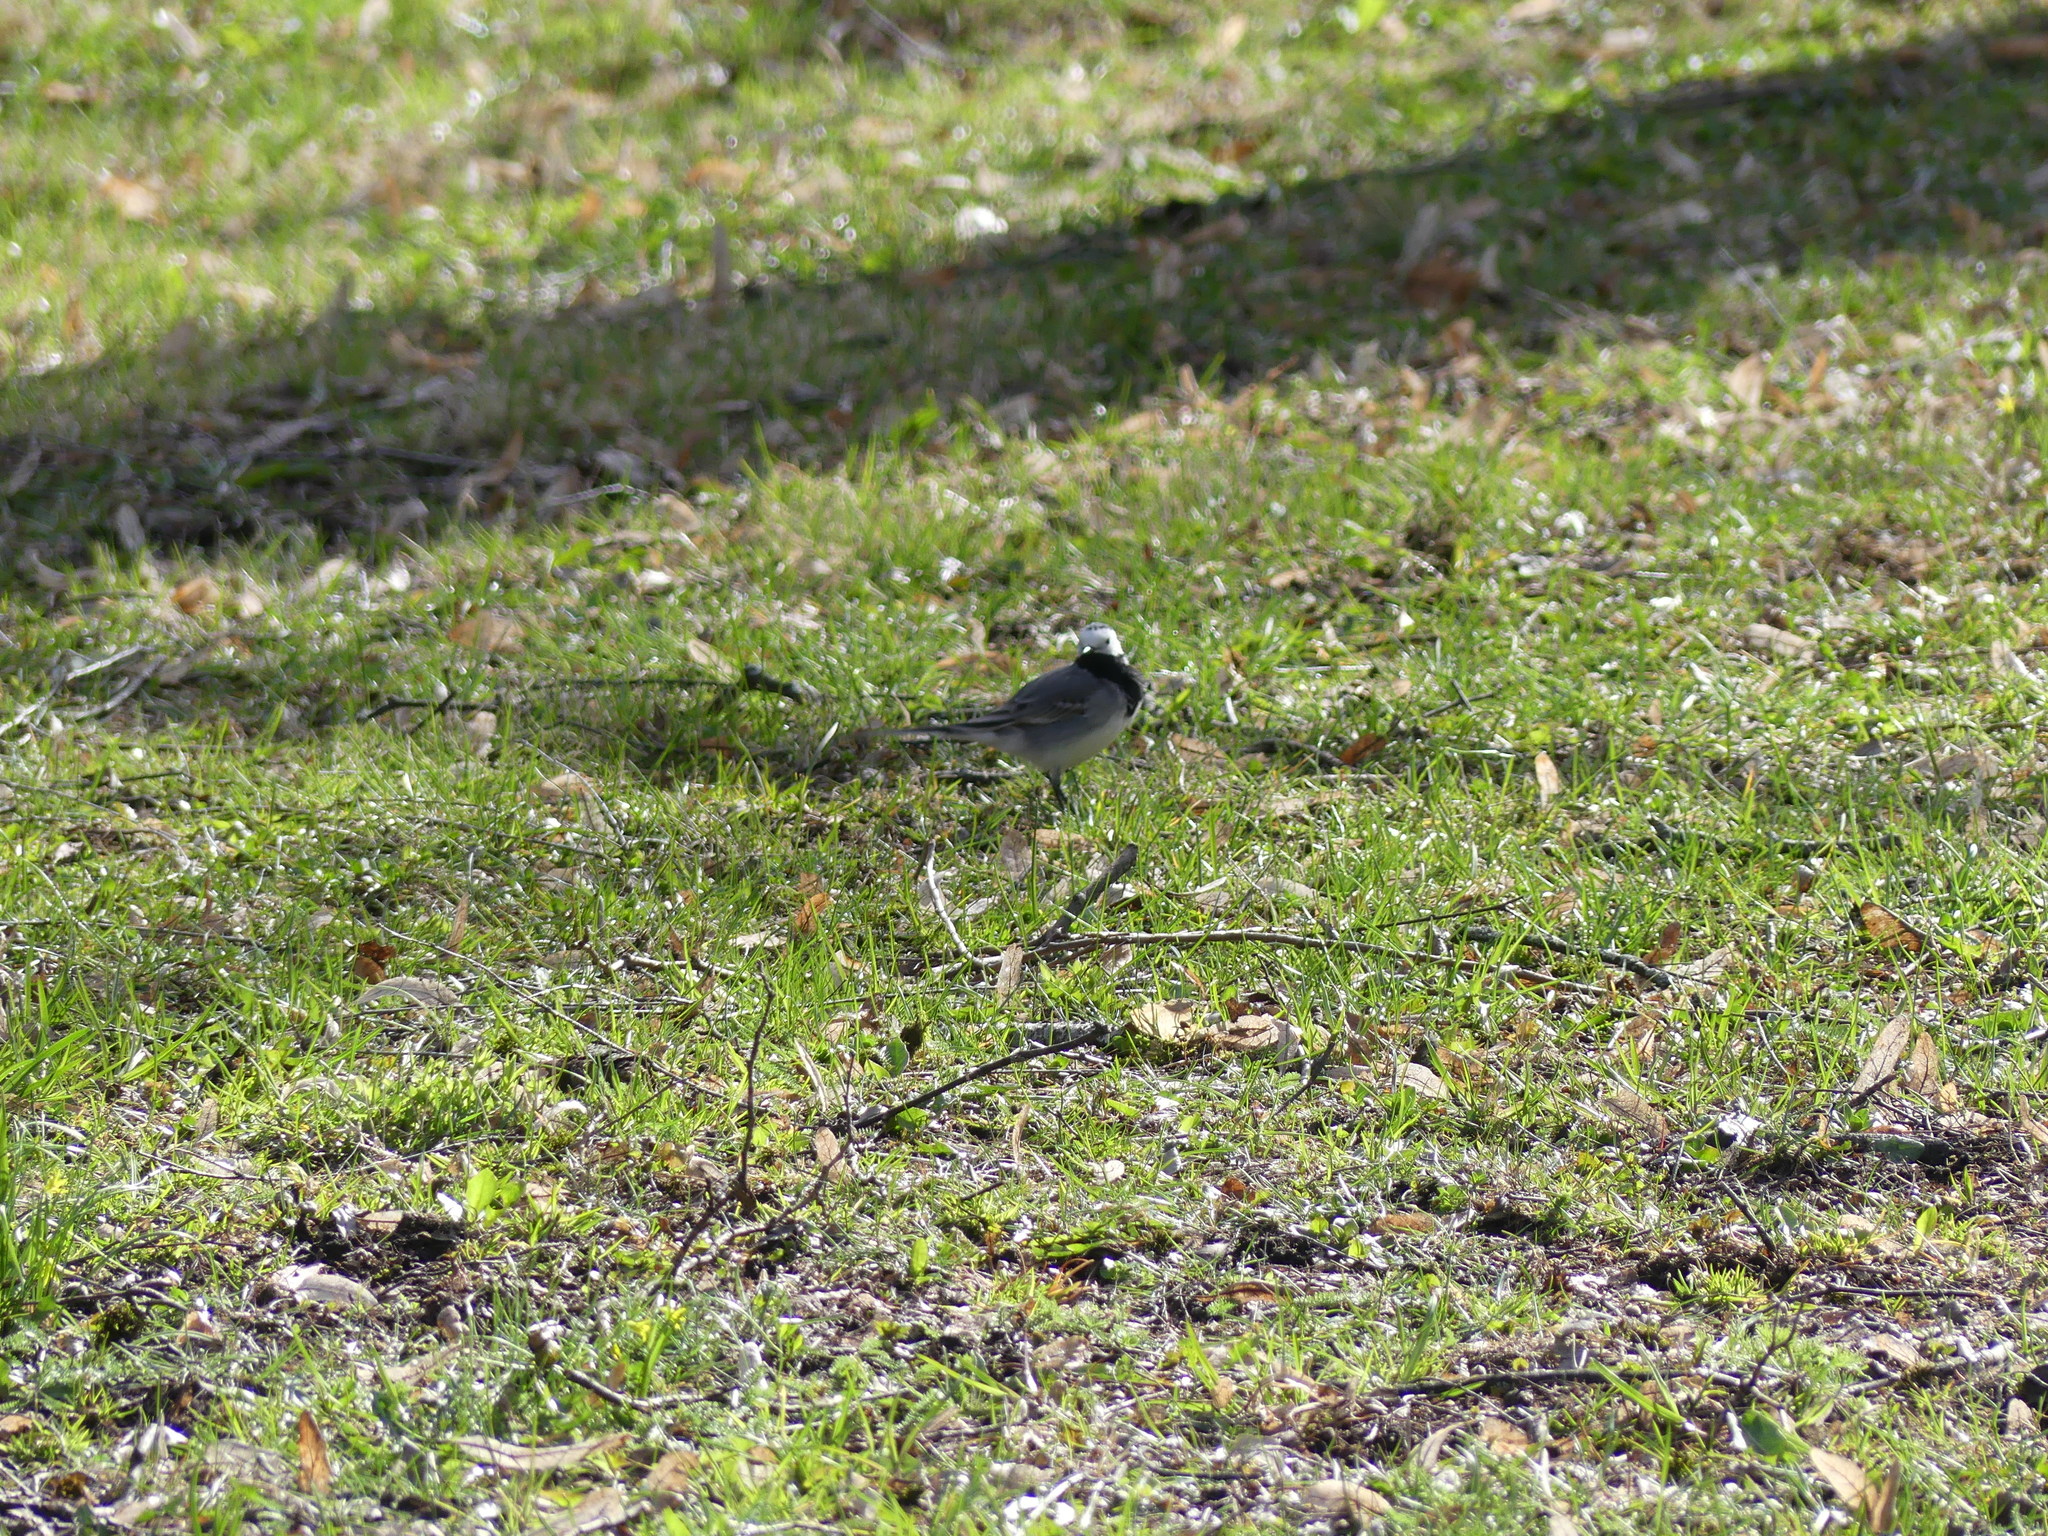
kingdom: Animalia
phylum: Chordata
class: Aves
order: Passeriformes
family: Motacillidae
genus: Motacilla
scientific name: Motacilla alba
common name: White wagtail
